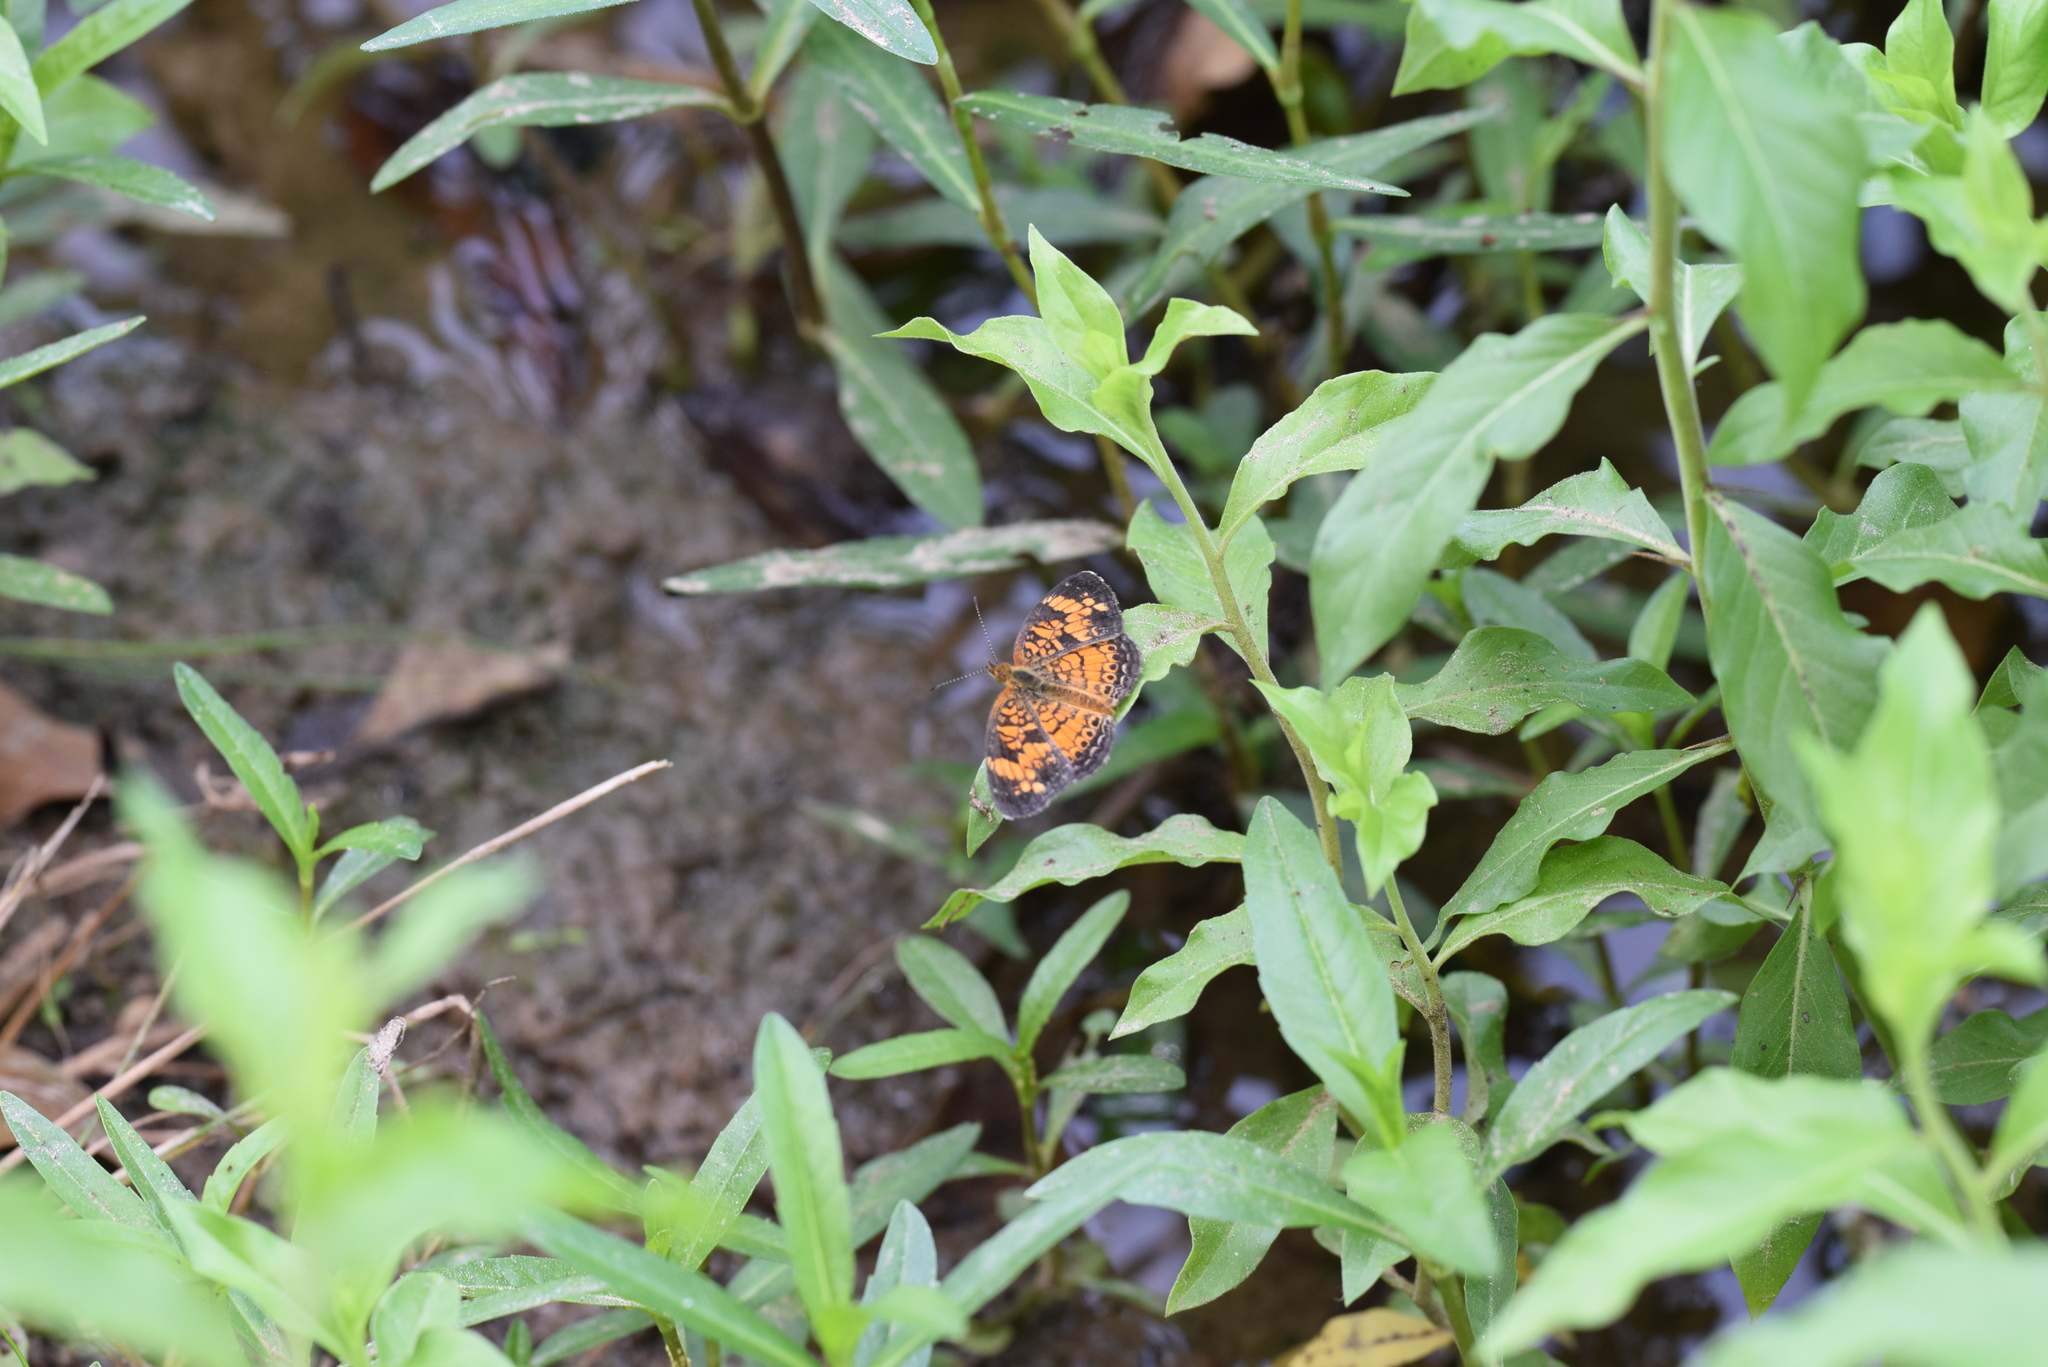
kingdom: Animalia
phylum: Arthropoda
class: Insecta
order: Lepidoptera
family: Nymphalidae
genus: Phyciodes
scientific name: Phyciodes tharos
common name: Pearl crescent
